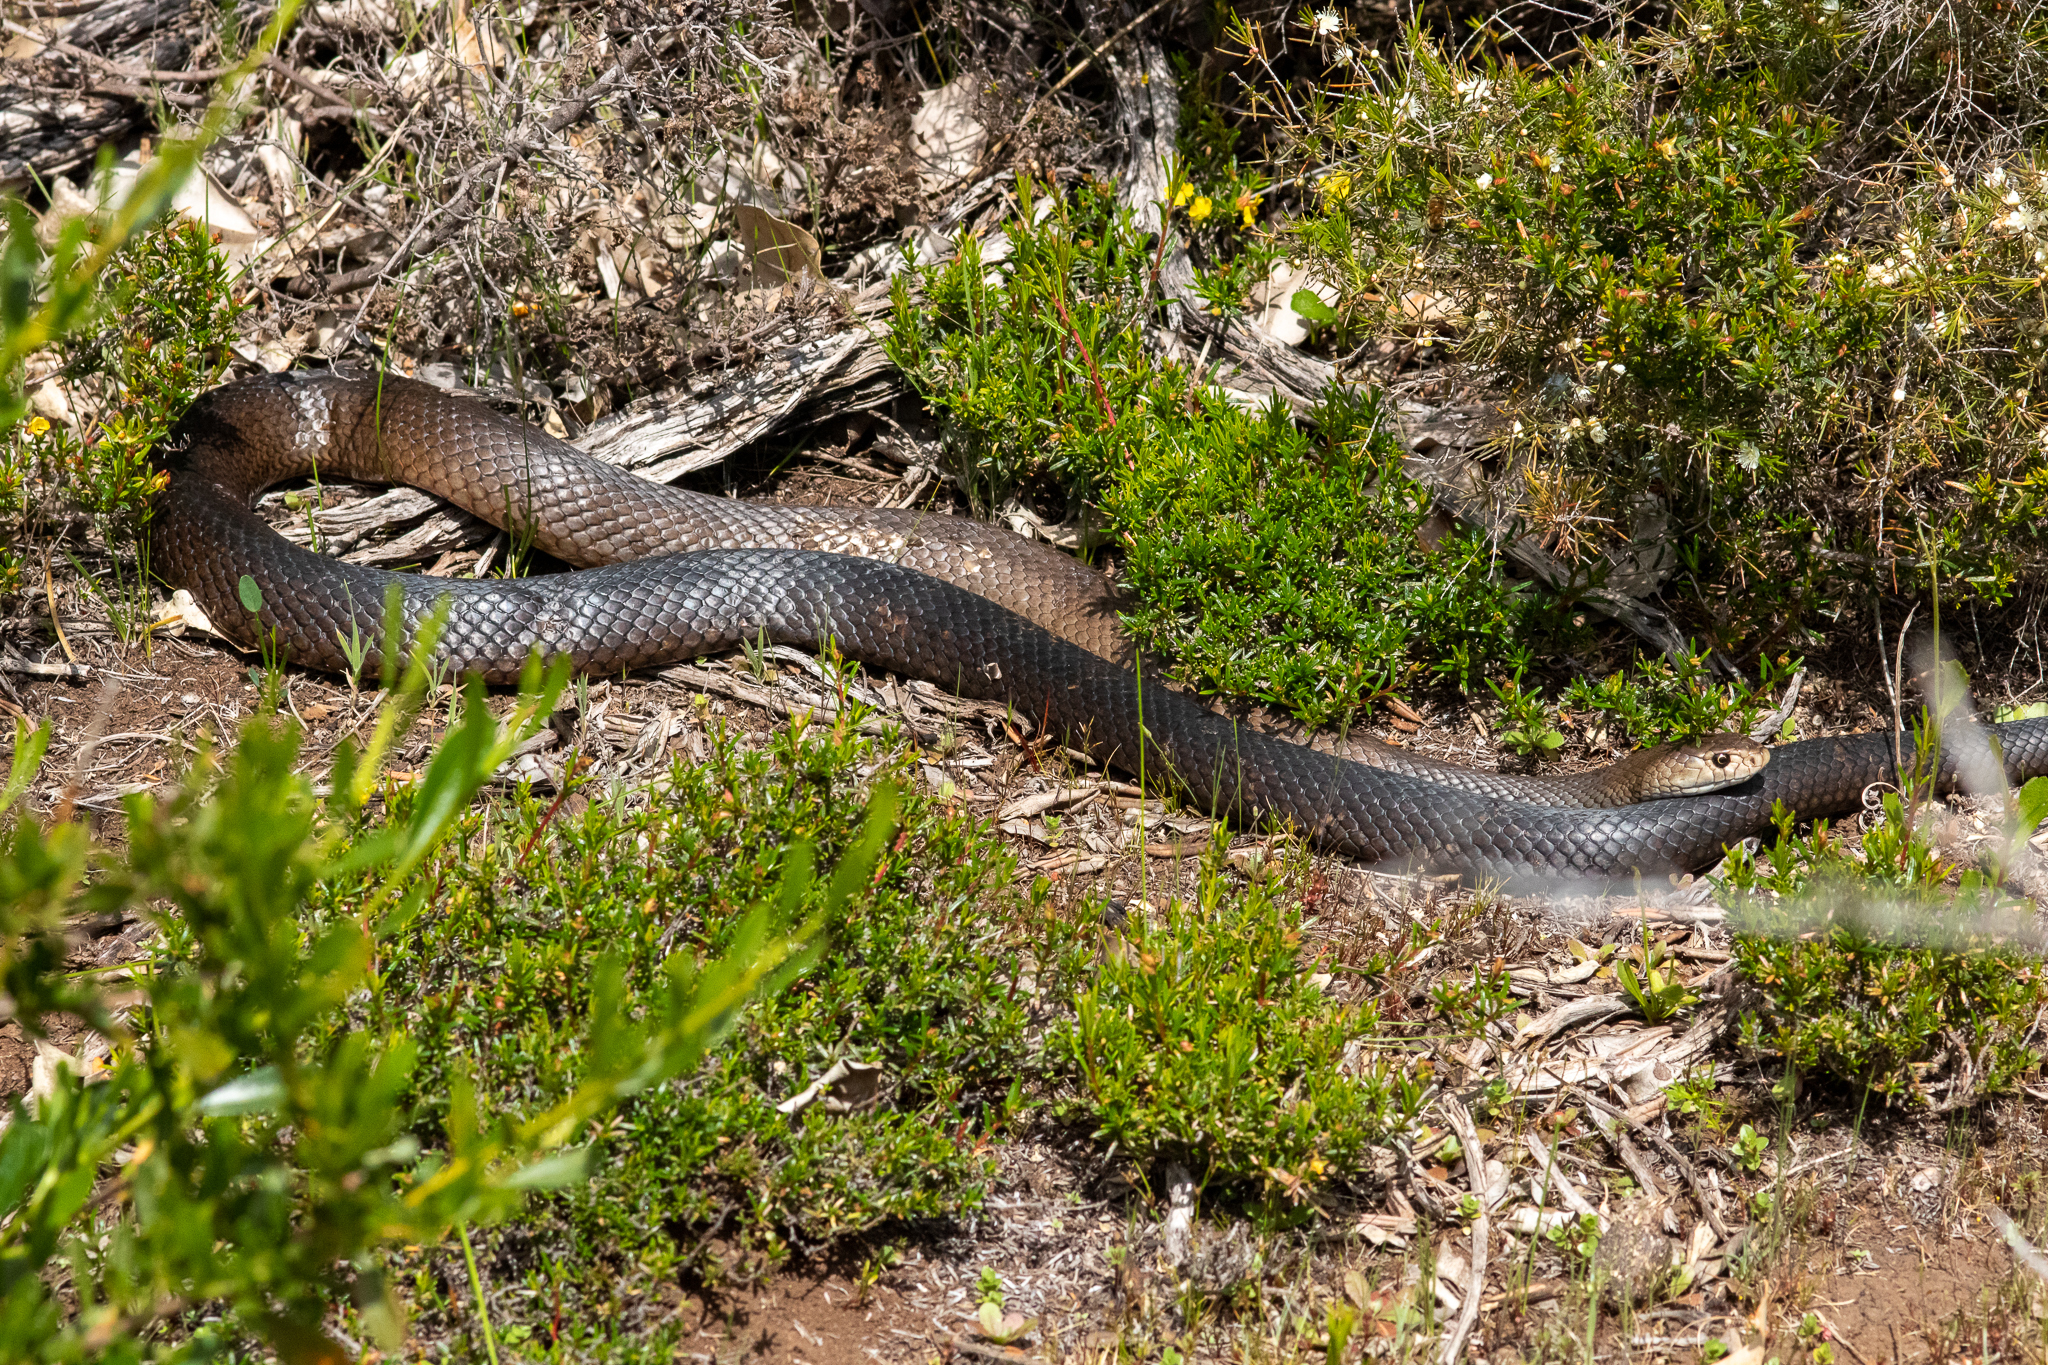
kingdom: Animalia
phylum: Chordata
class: Squamata
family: Elapidae
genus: Pseudonaja
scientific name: Pseudonaja affinis
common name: Dugite
